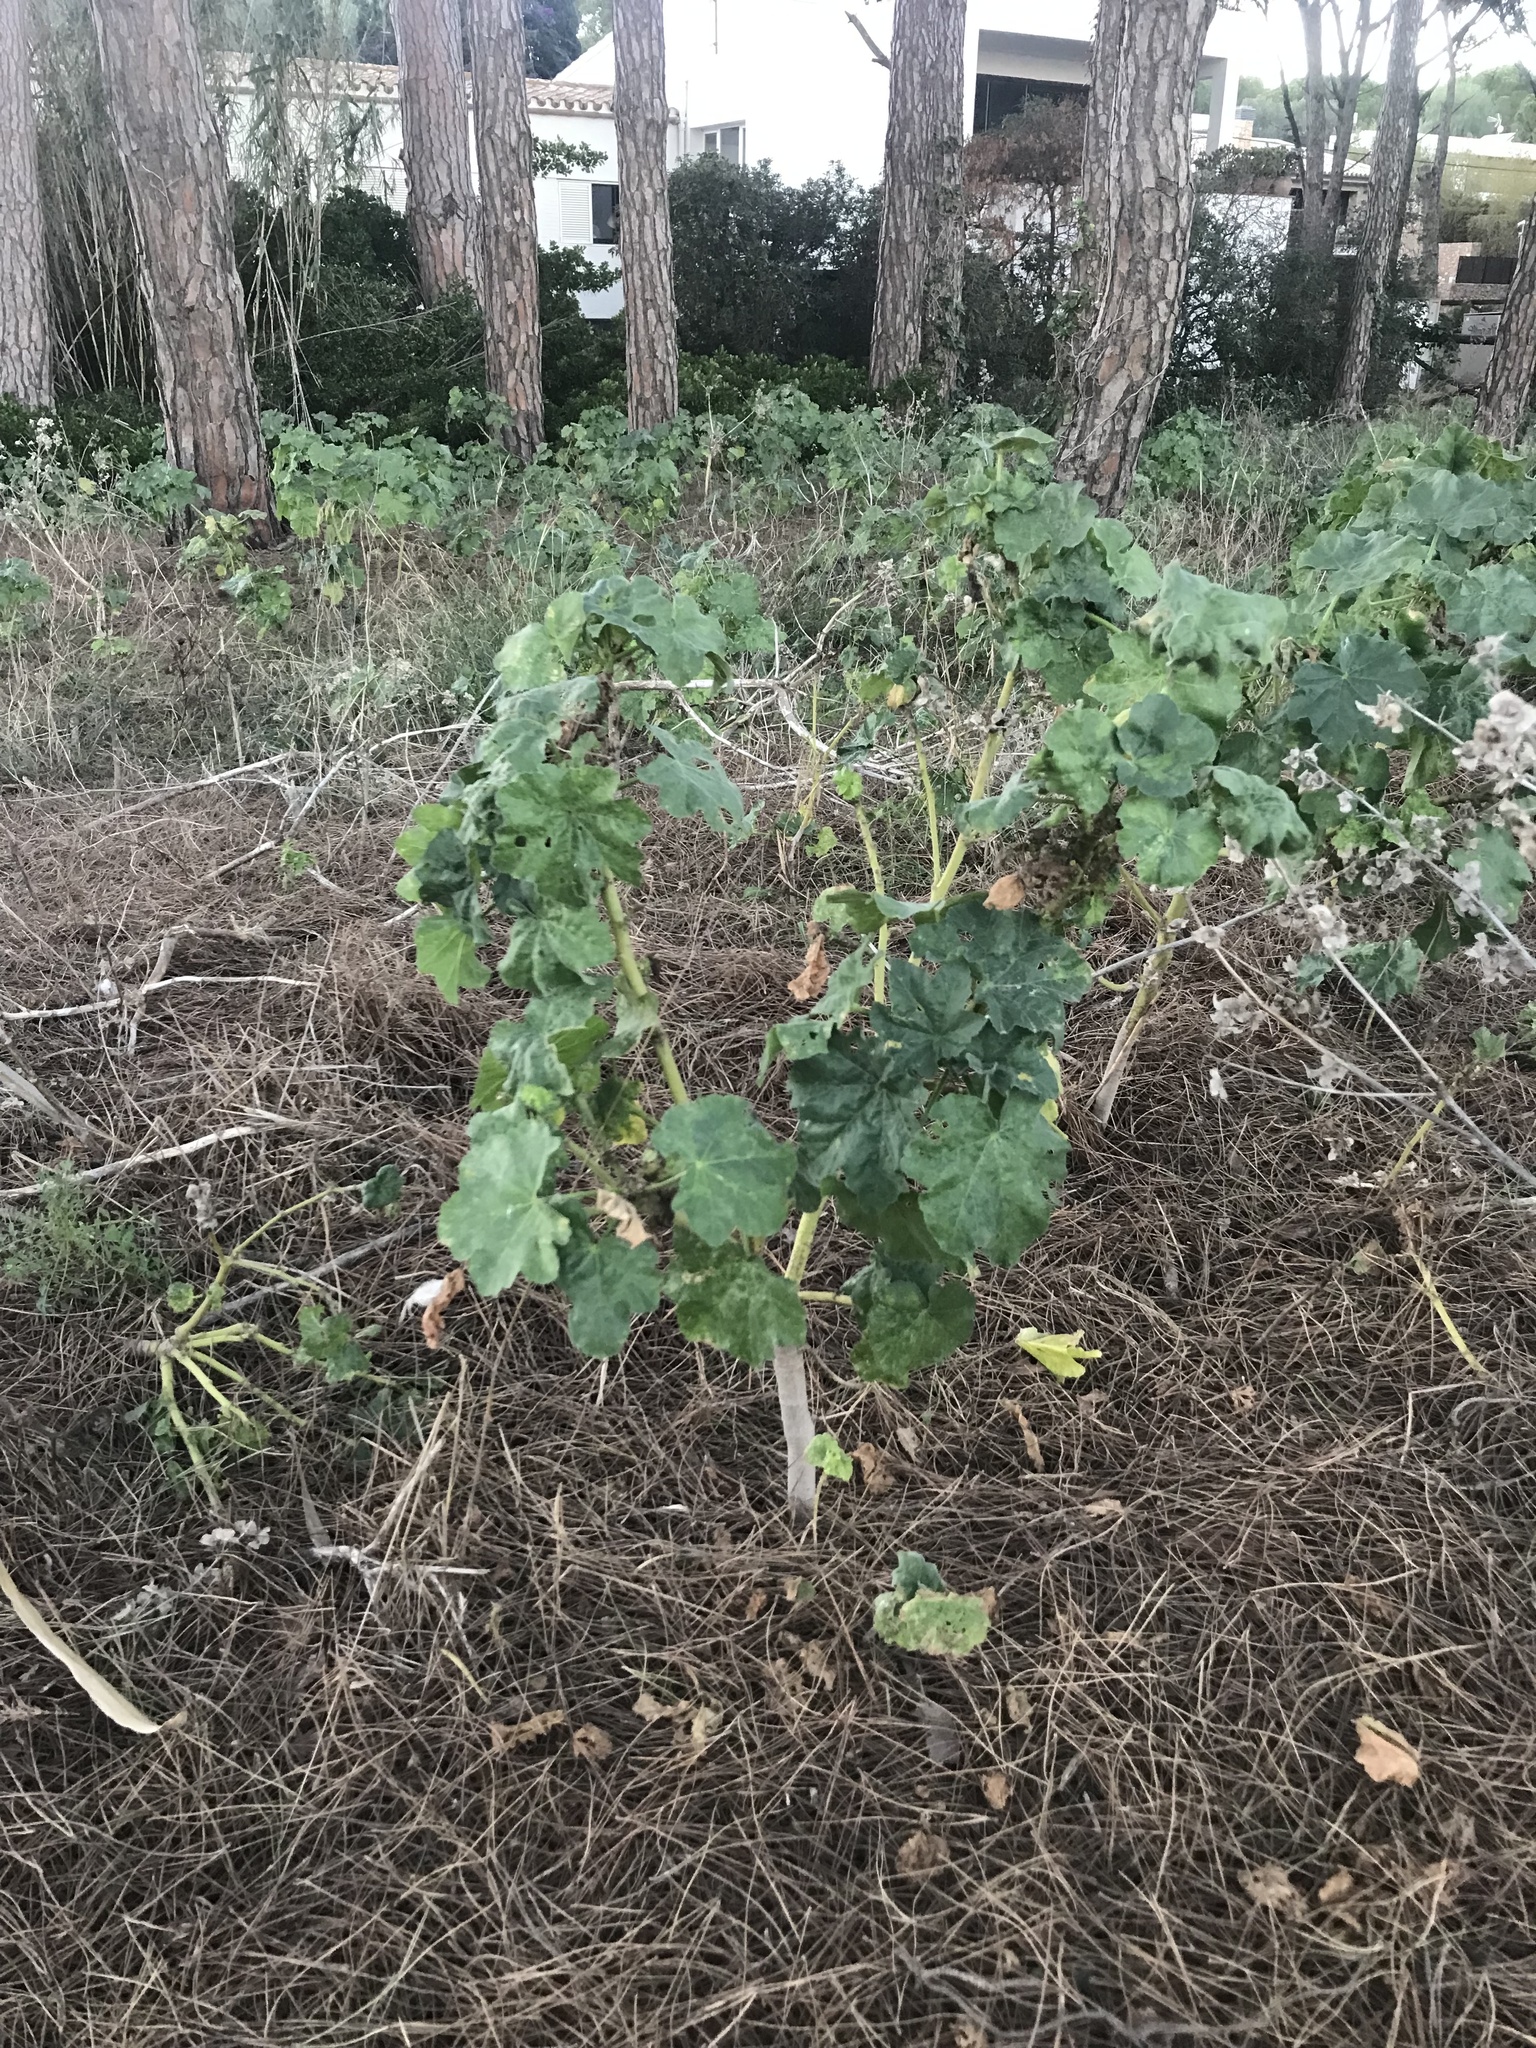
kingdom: Plantae
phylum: Tracheophyta
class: Magnoliopsida
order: Malvales
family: Malvaceae
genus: Malva
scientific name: Malva arborea
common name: Tree mallow
